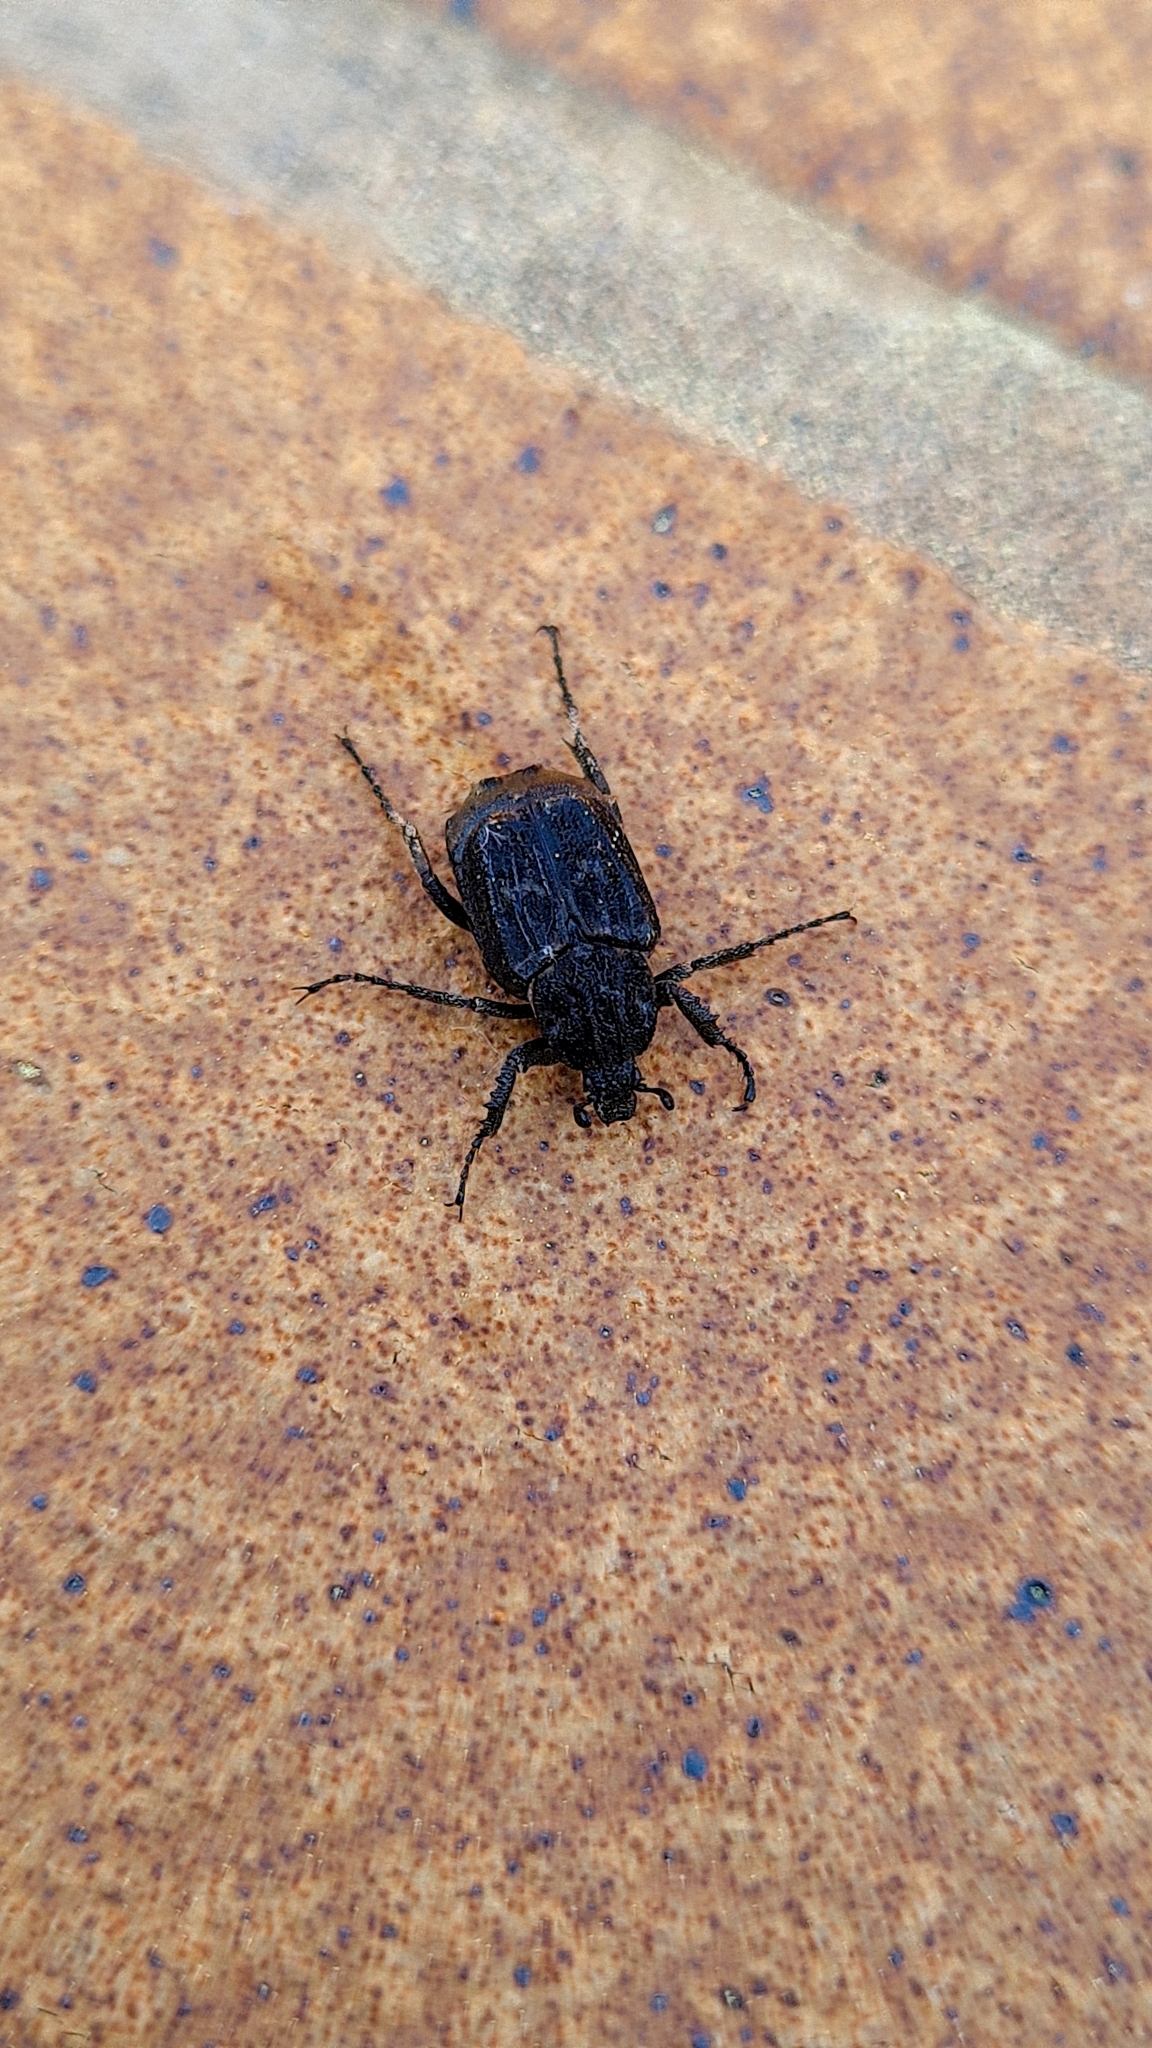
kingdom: Animalia
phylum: Arthropoda
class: Insecta
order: Coleoptera
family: Scarabaeidae
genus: Valgus
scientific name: Valgus hemipterus
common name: Bug flower chafer
